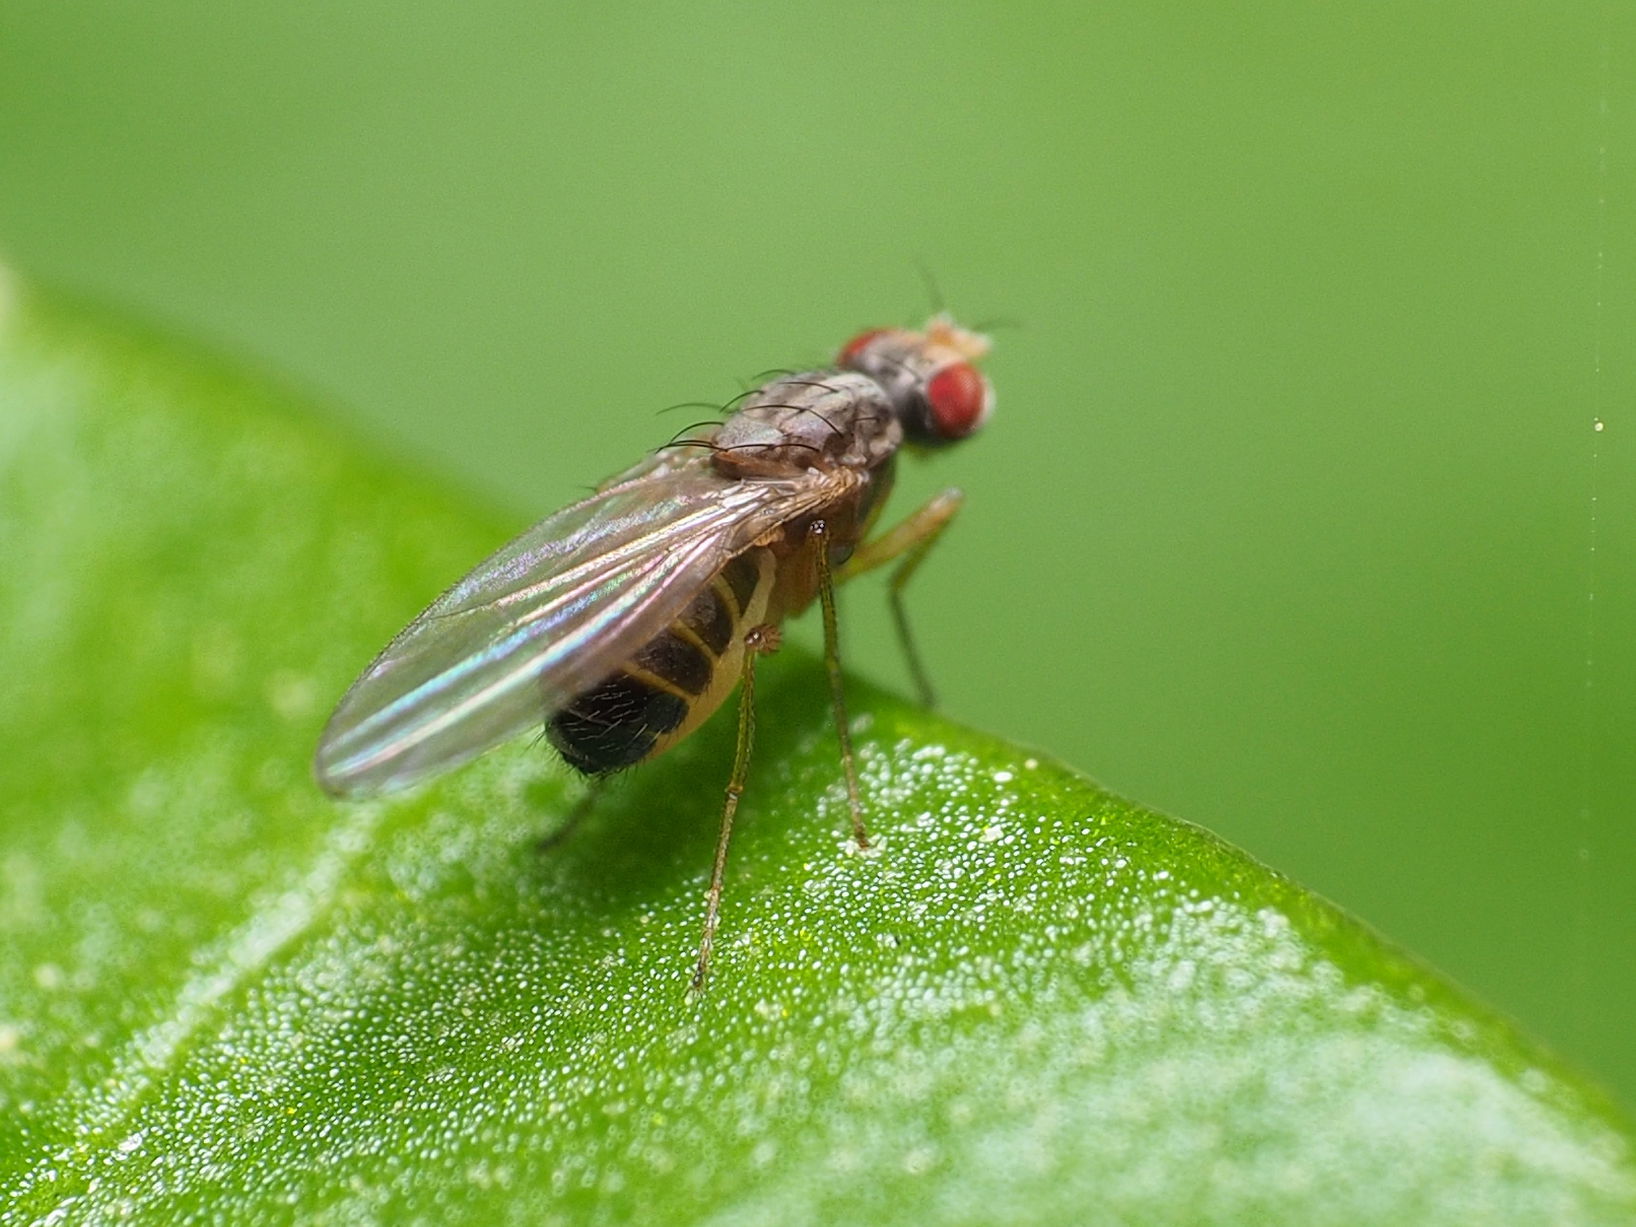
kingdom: Animalia
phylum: Arthropoda
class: Insecta
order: Diptera
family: Drosophilidae
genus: Scaptomyza
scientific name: Scaptomyza pallida
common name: Pomace fly
